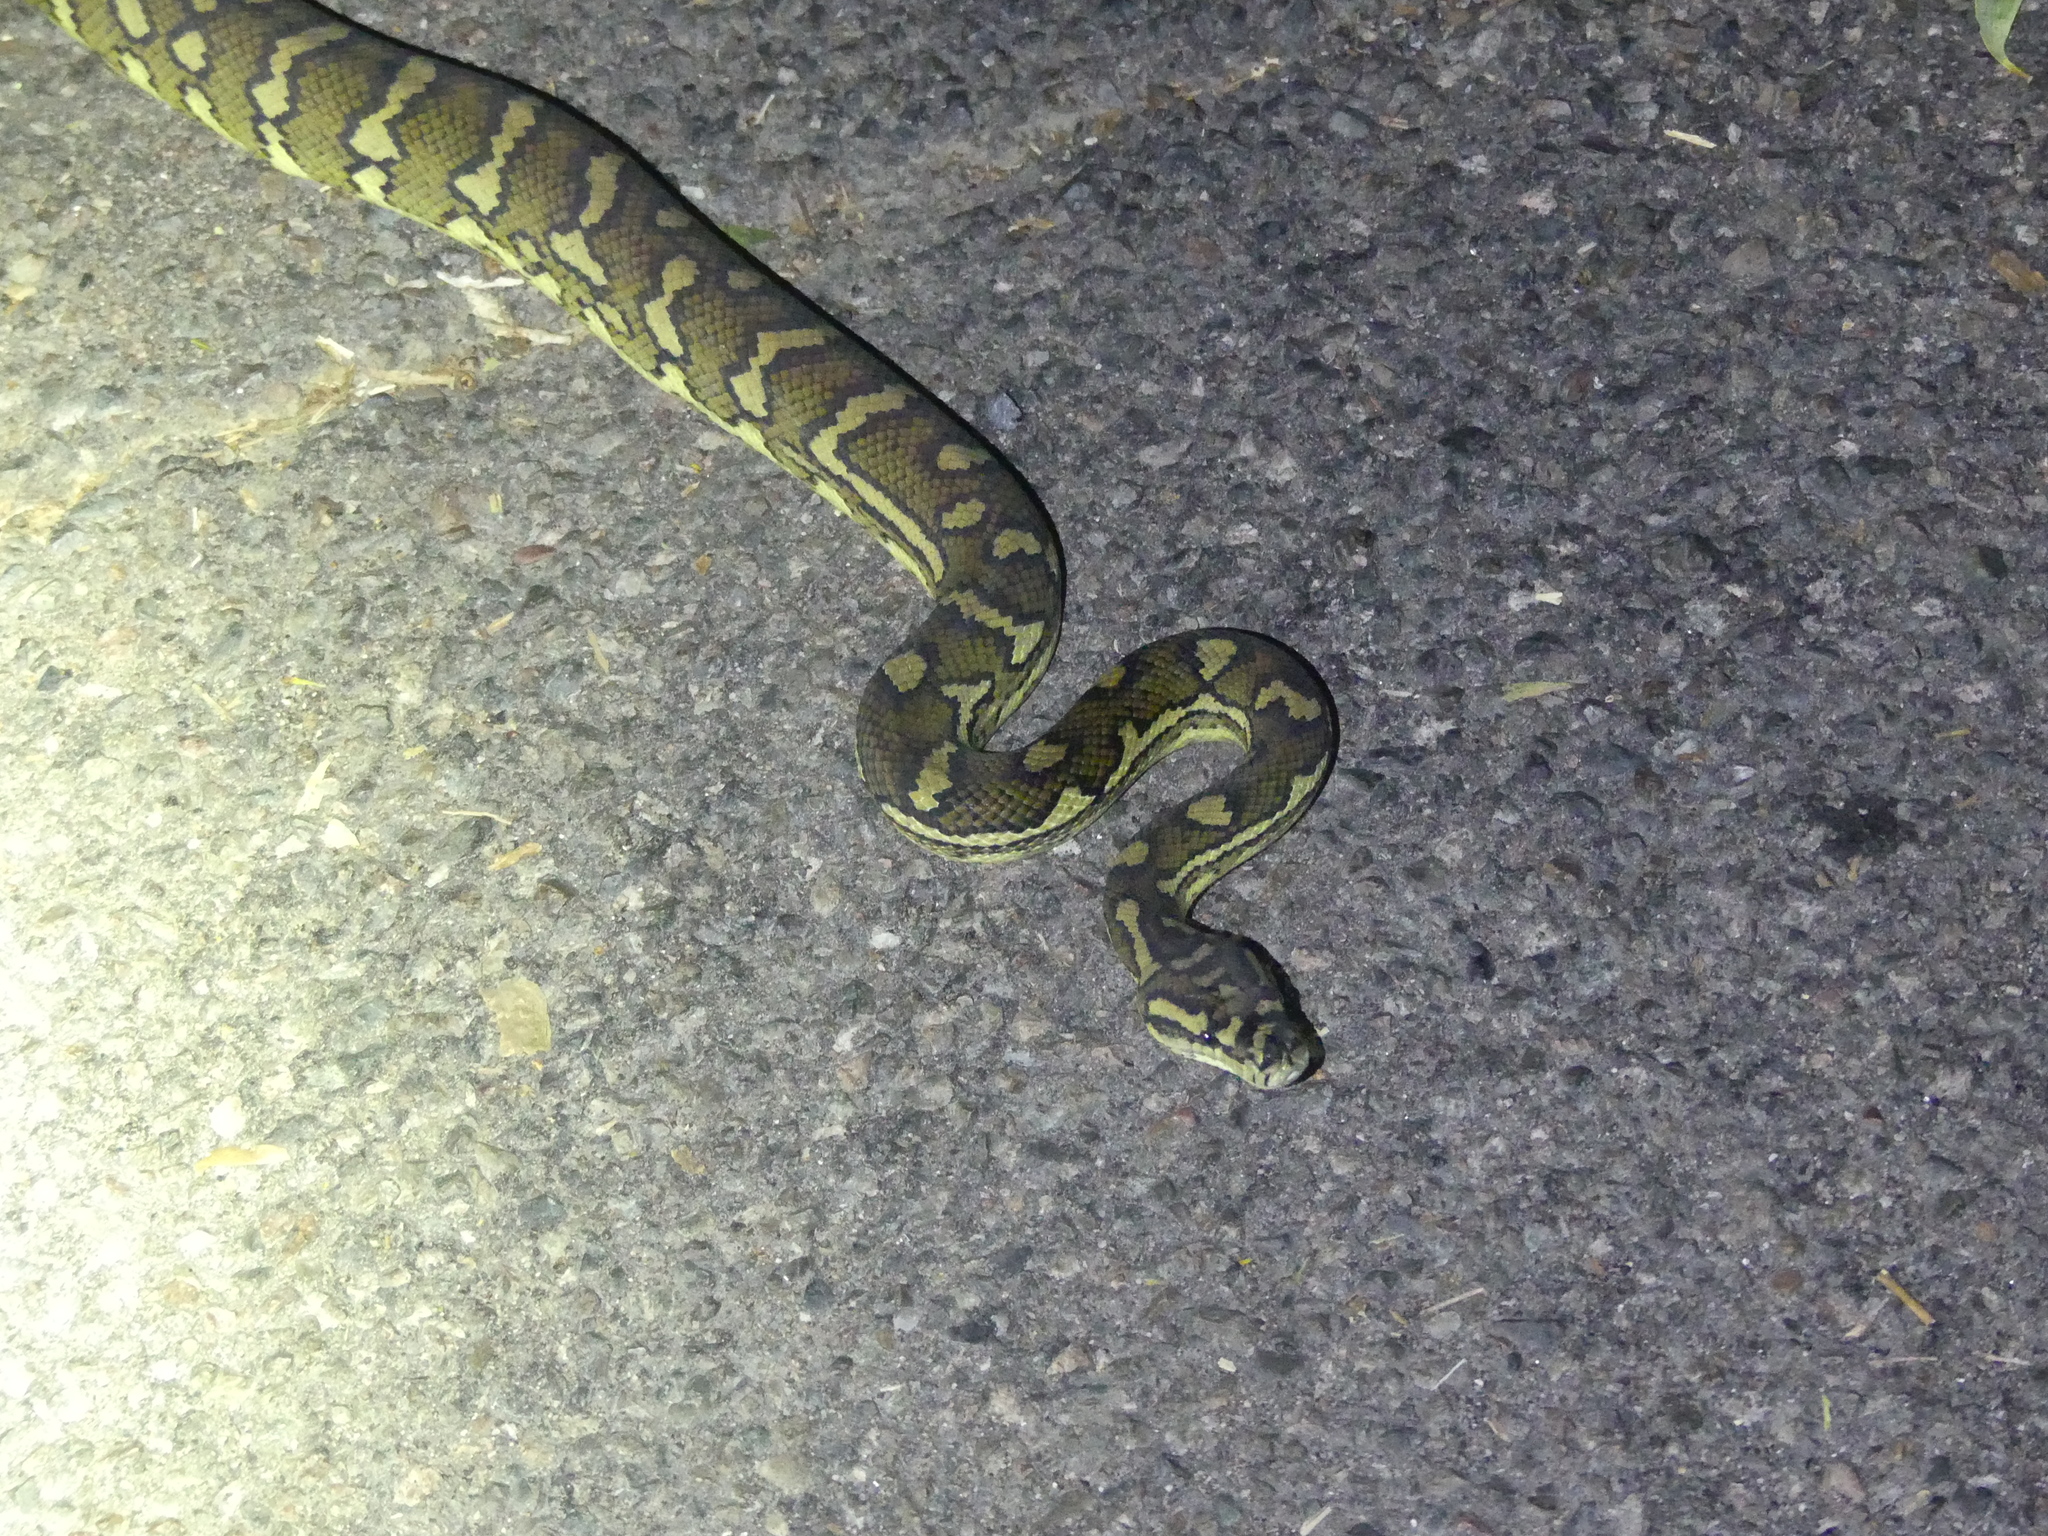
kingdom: Animalia
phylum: Chordata
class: Squamata
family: Pythonidae
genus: Morelia
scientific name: Morelia spilota
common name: Carpet python
